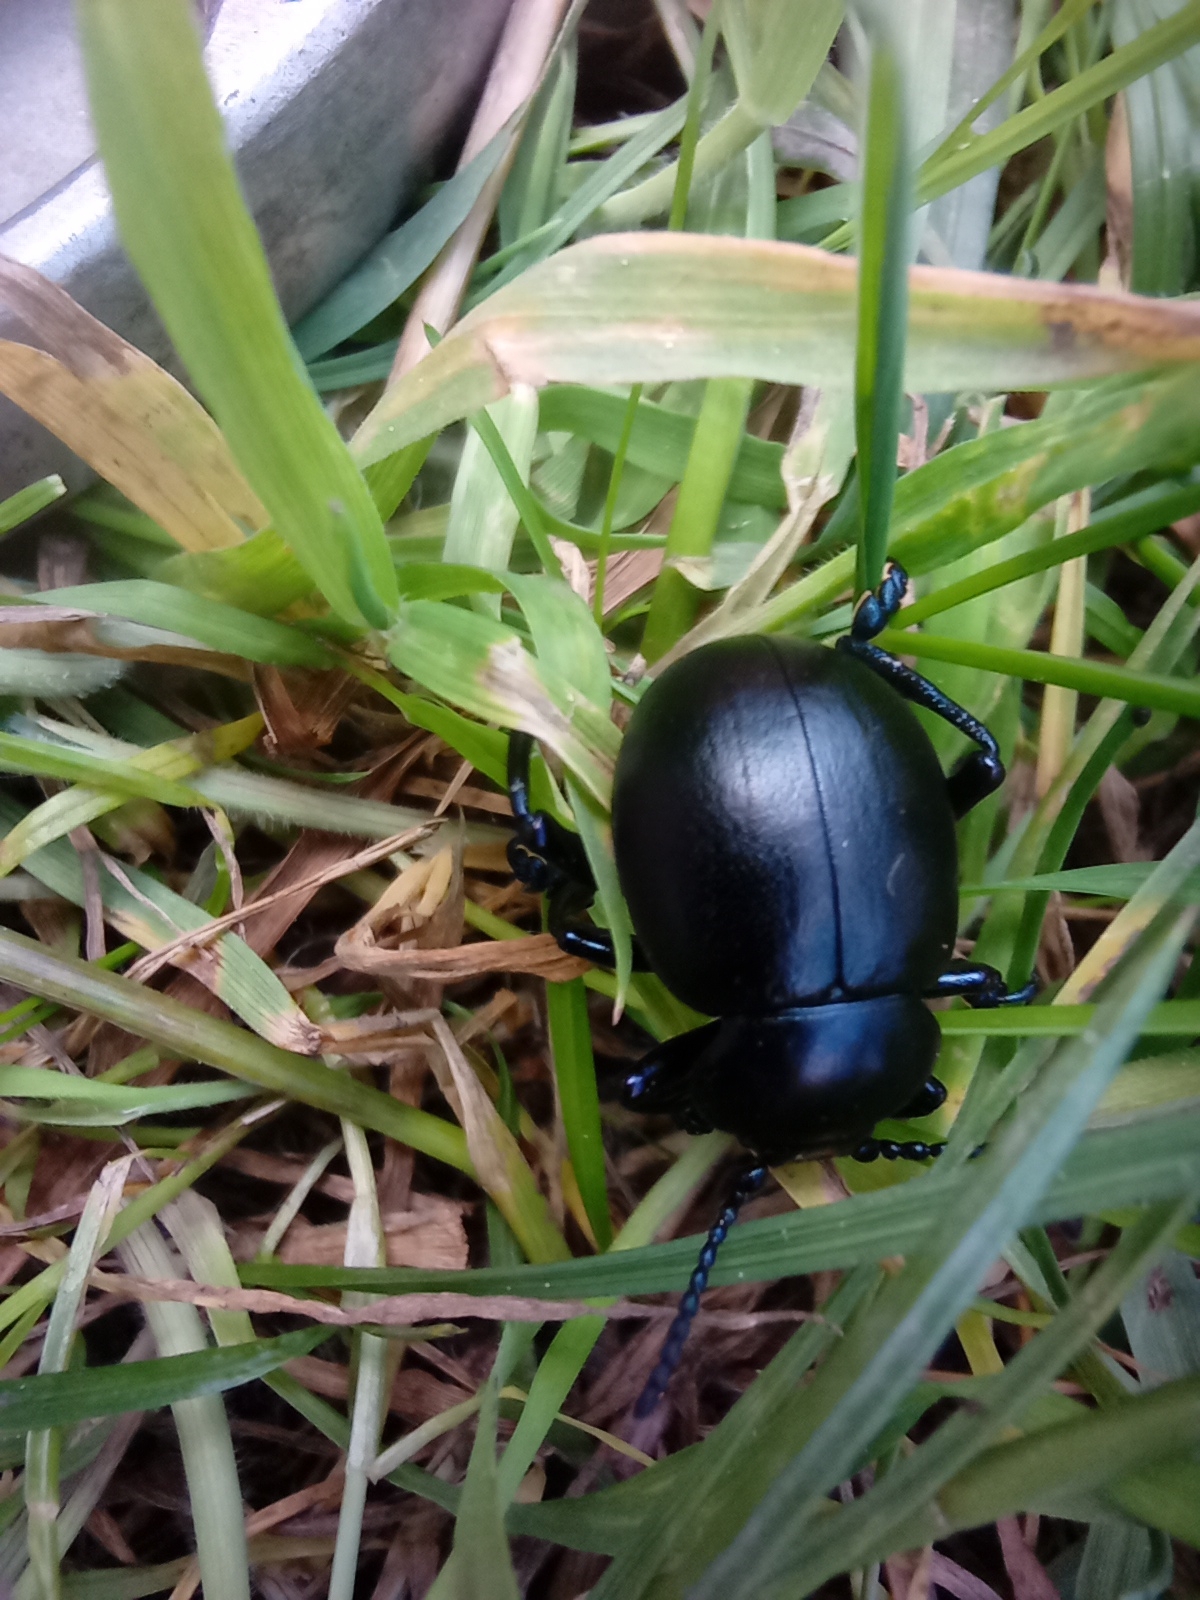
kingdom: Animalia
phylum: Arthropoda
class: Insecta
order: Coleoptera
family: Chrysomelidae
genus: Timarcha
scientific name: Timarcha tenebricosa
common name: Bloody-nosed beetle
